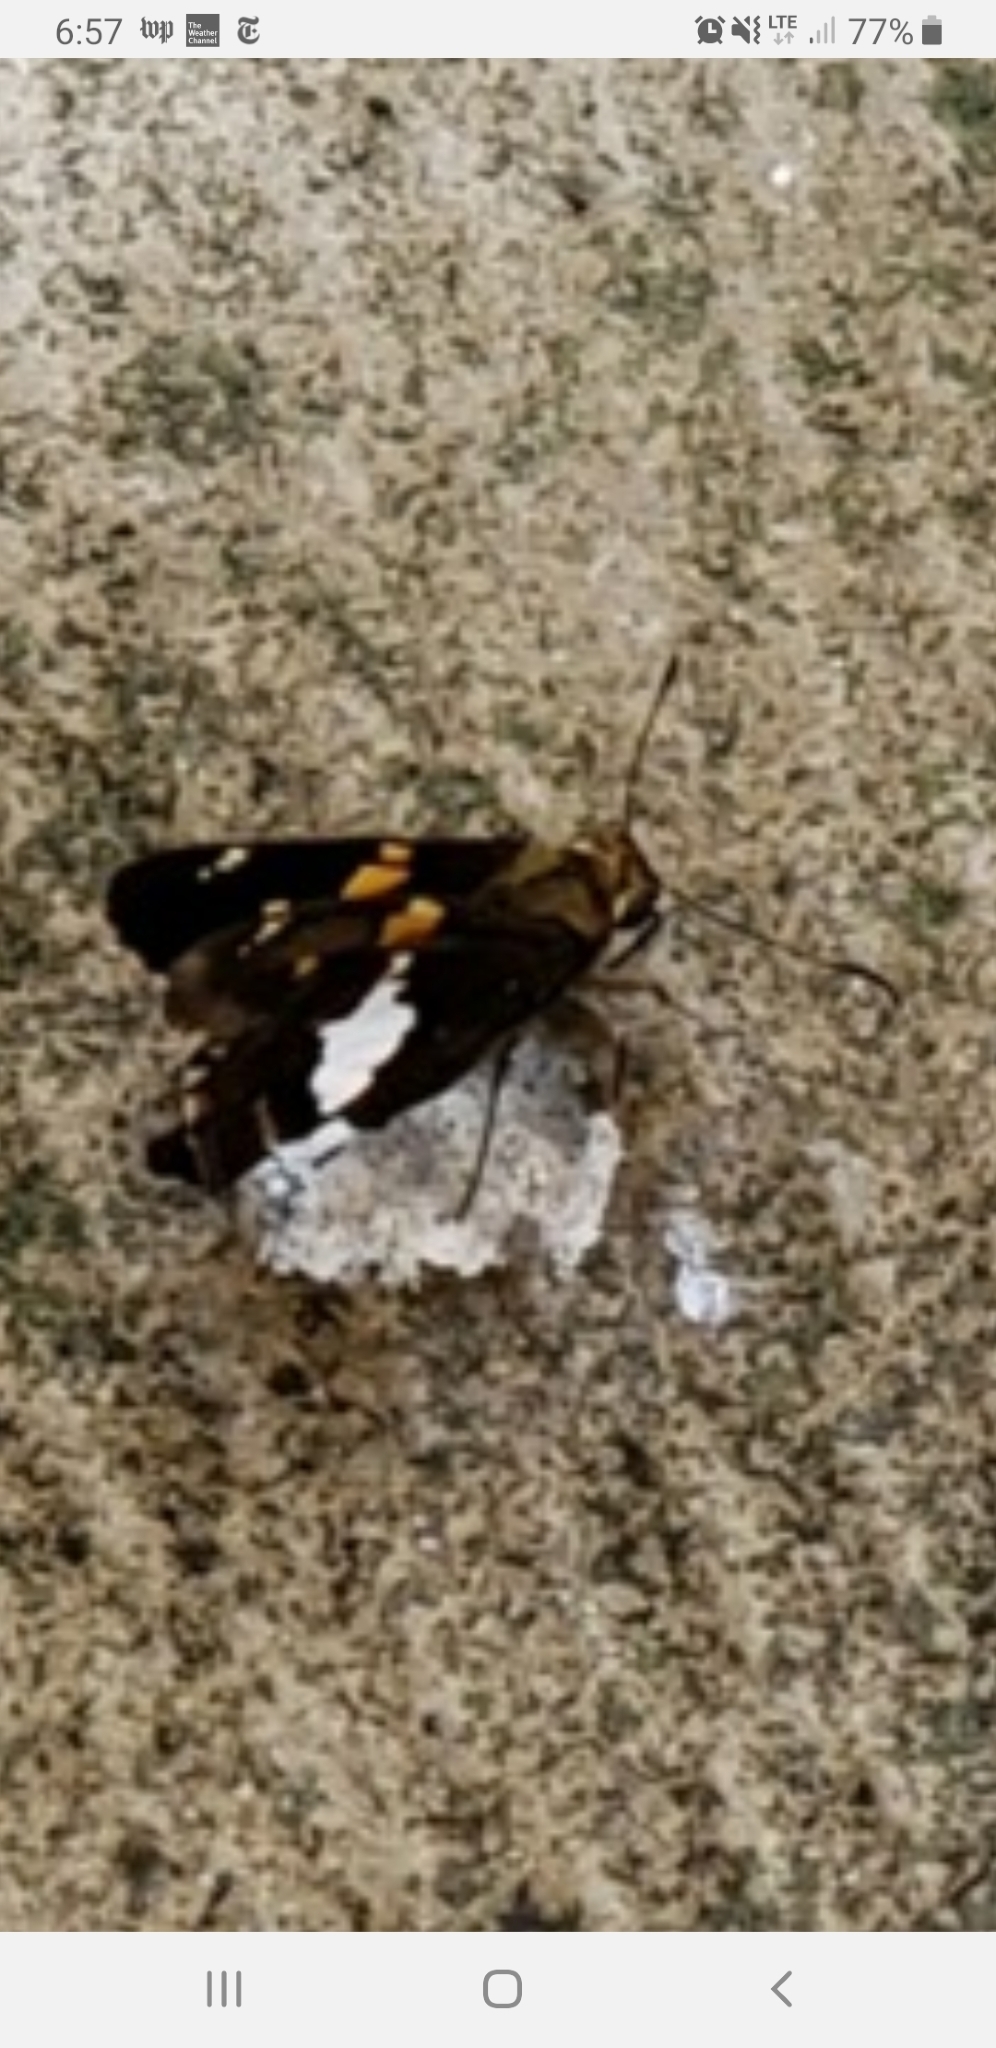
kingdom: Animalia
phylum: Arthropoda
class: Insecta
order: Lepidoptera
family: Hesperiidae
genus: Epargyreus
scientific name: Epargyreus clarus
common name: Silver-spotted skipper
